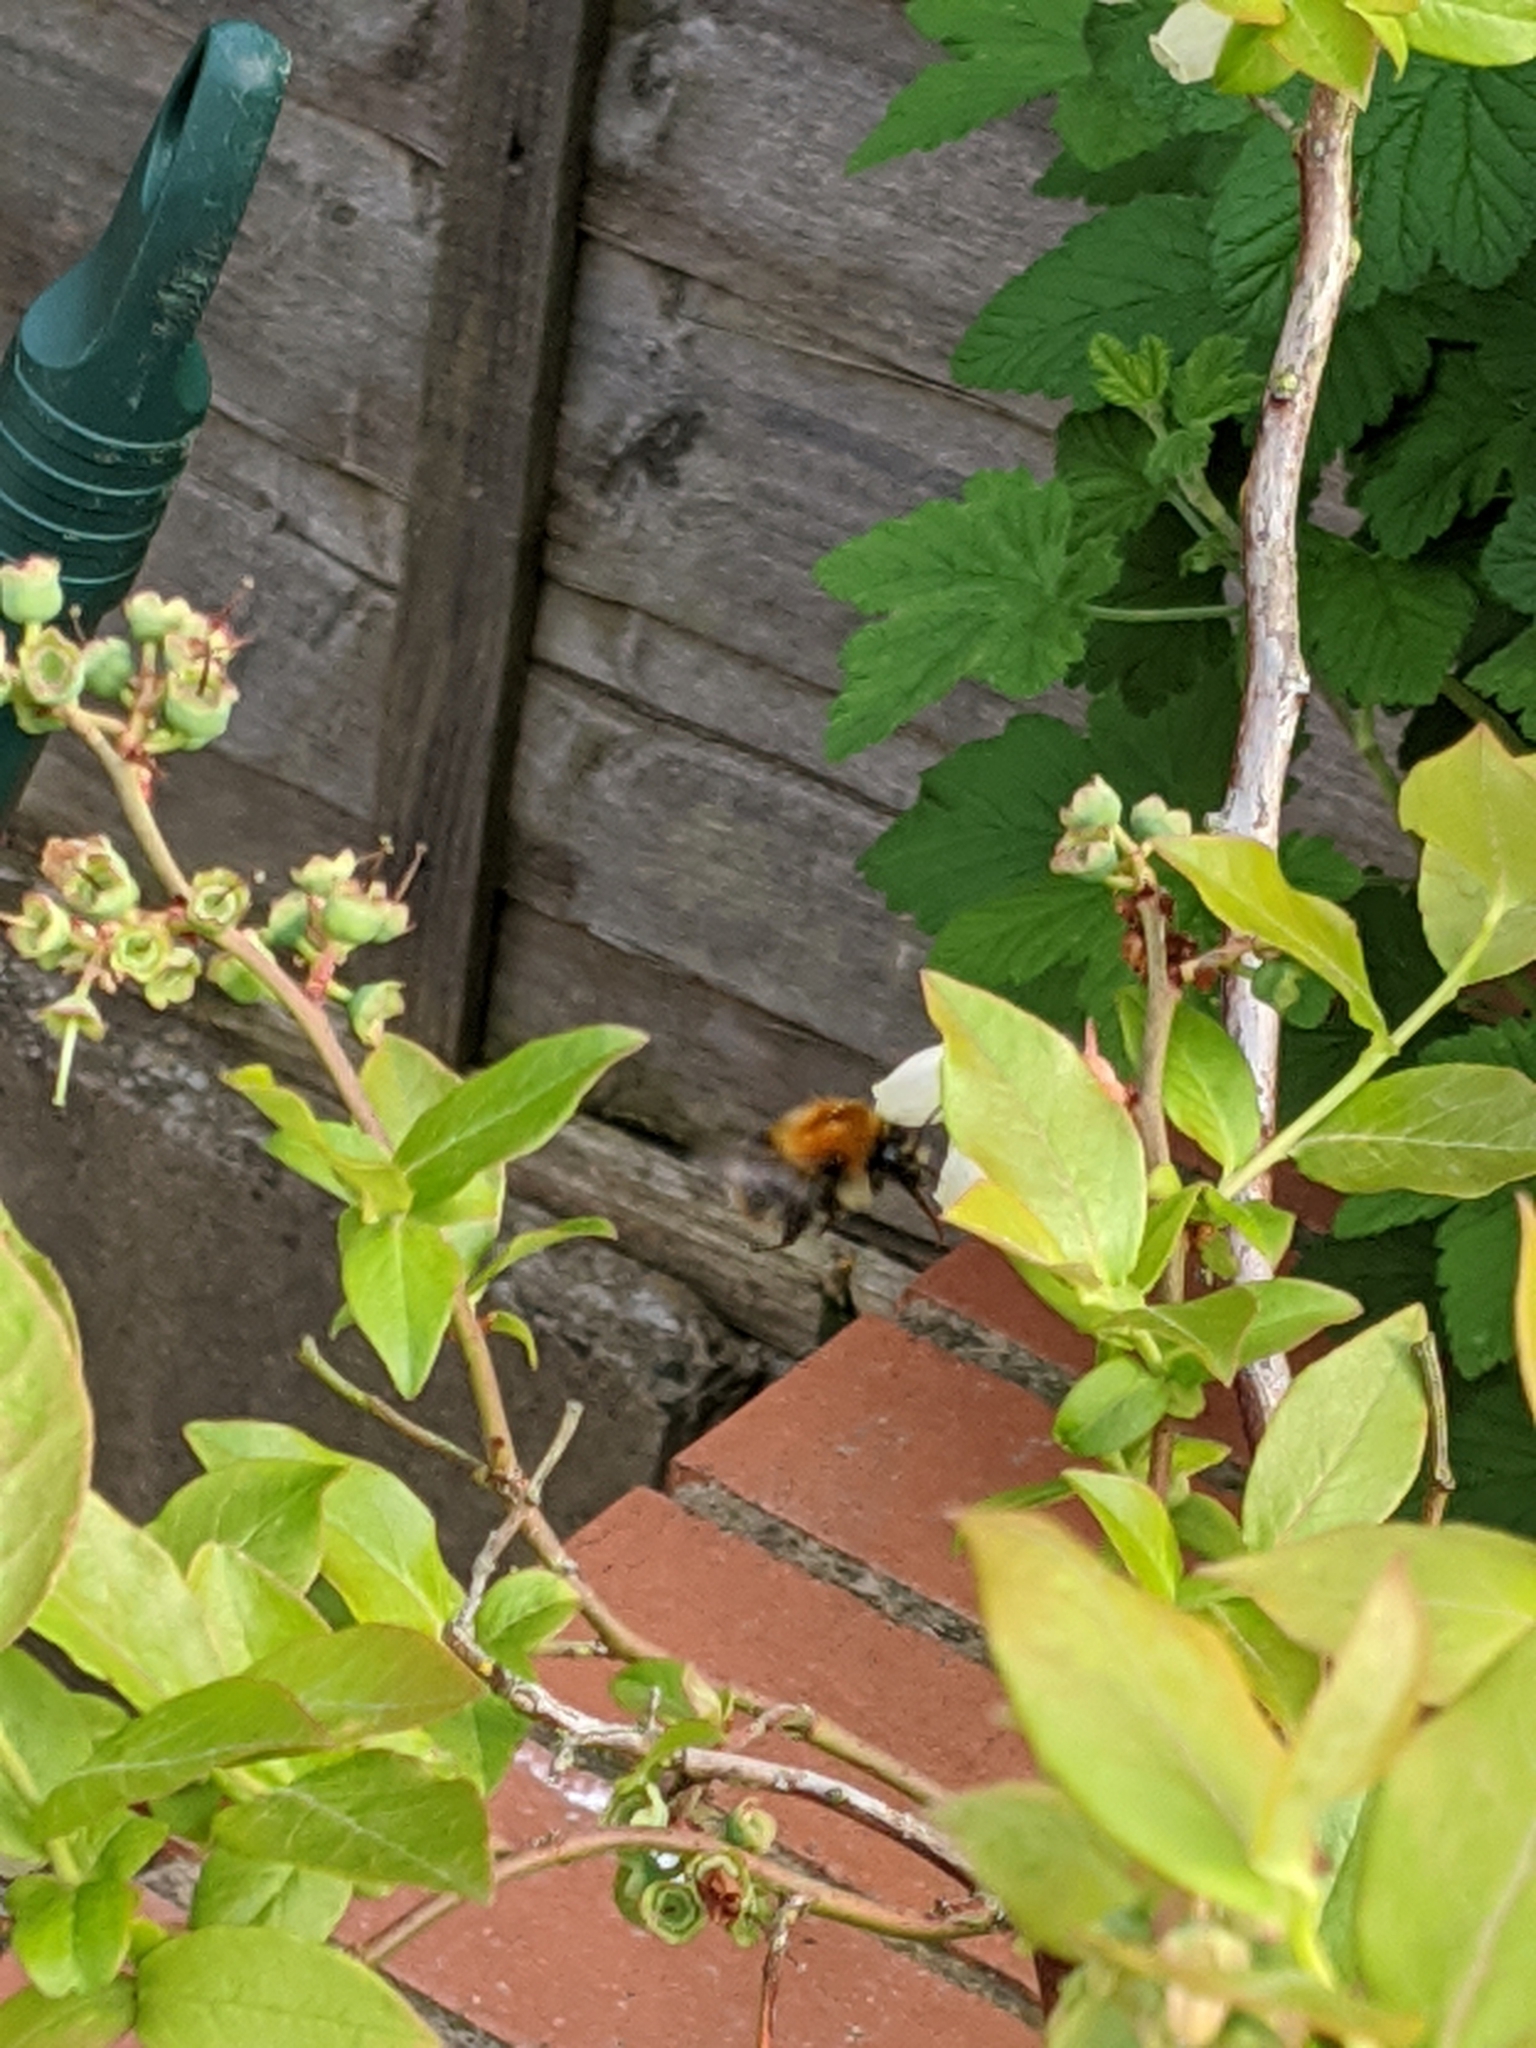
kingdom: Animalia
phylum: Arthropoda
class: Insecta
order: Hymenoptera
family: Apidae
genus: Bombus
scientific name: Bombus pascuorum
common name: Common carder bee
